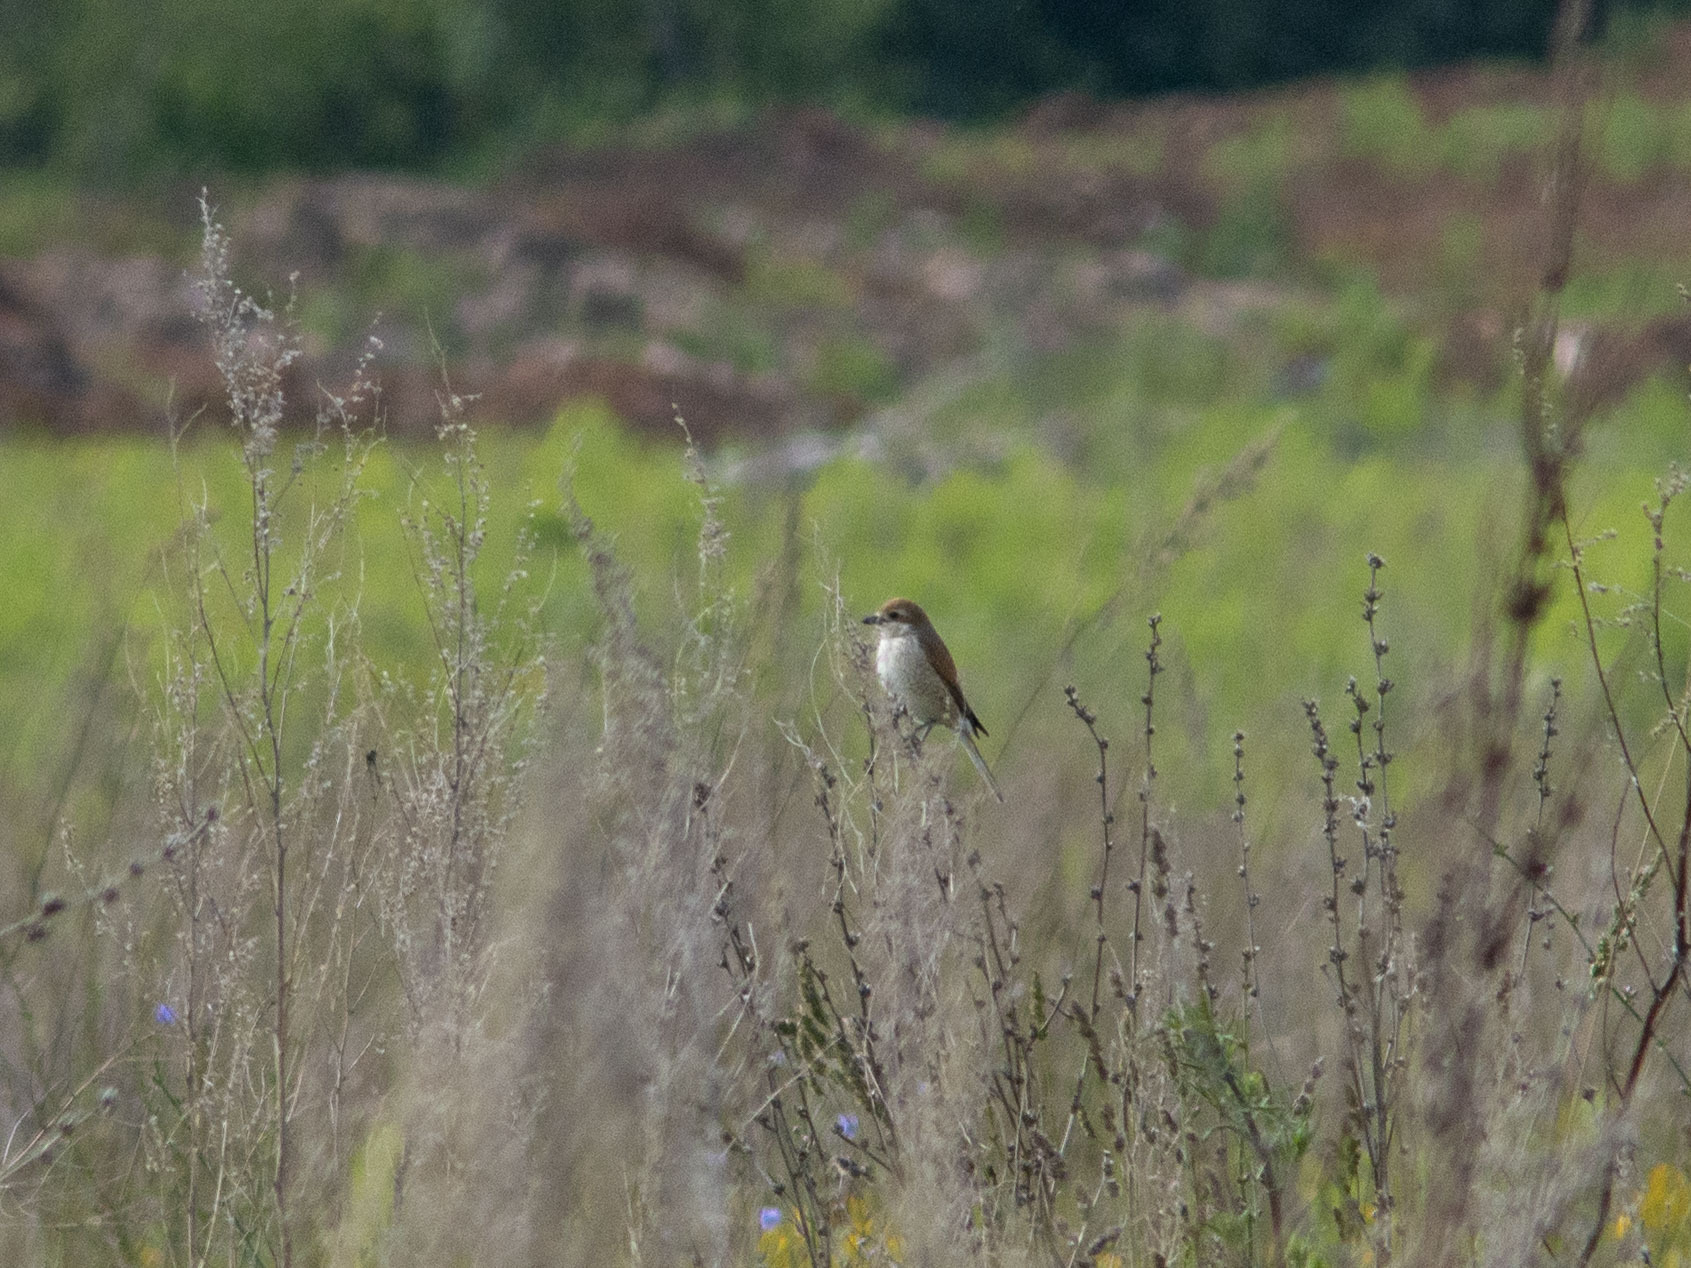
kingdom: Animalia
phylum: Chordata
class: Aves
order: Passeriformes
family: Laniidae
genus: Lanius
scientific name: Lanius collurio
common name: Red-backed shrike
